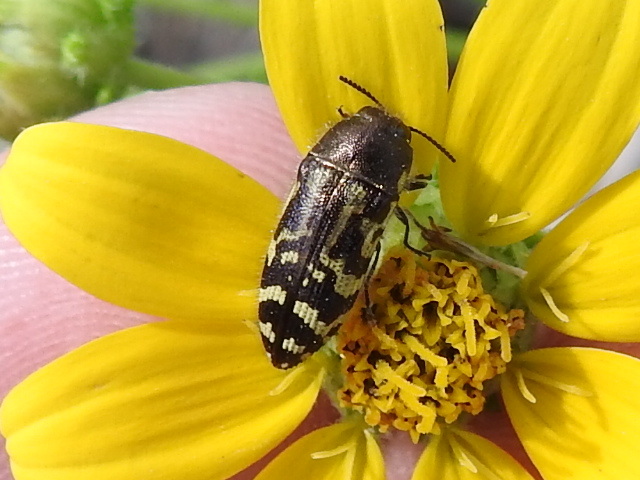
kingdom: Animalia
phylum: Arthropoda
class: Insecta
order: Coleoptera
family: Buprestidae
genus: Acmaeodera
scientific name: Acmaeodera mixta
